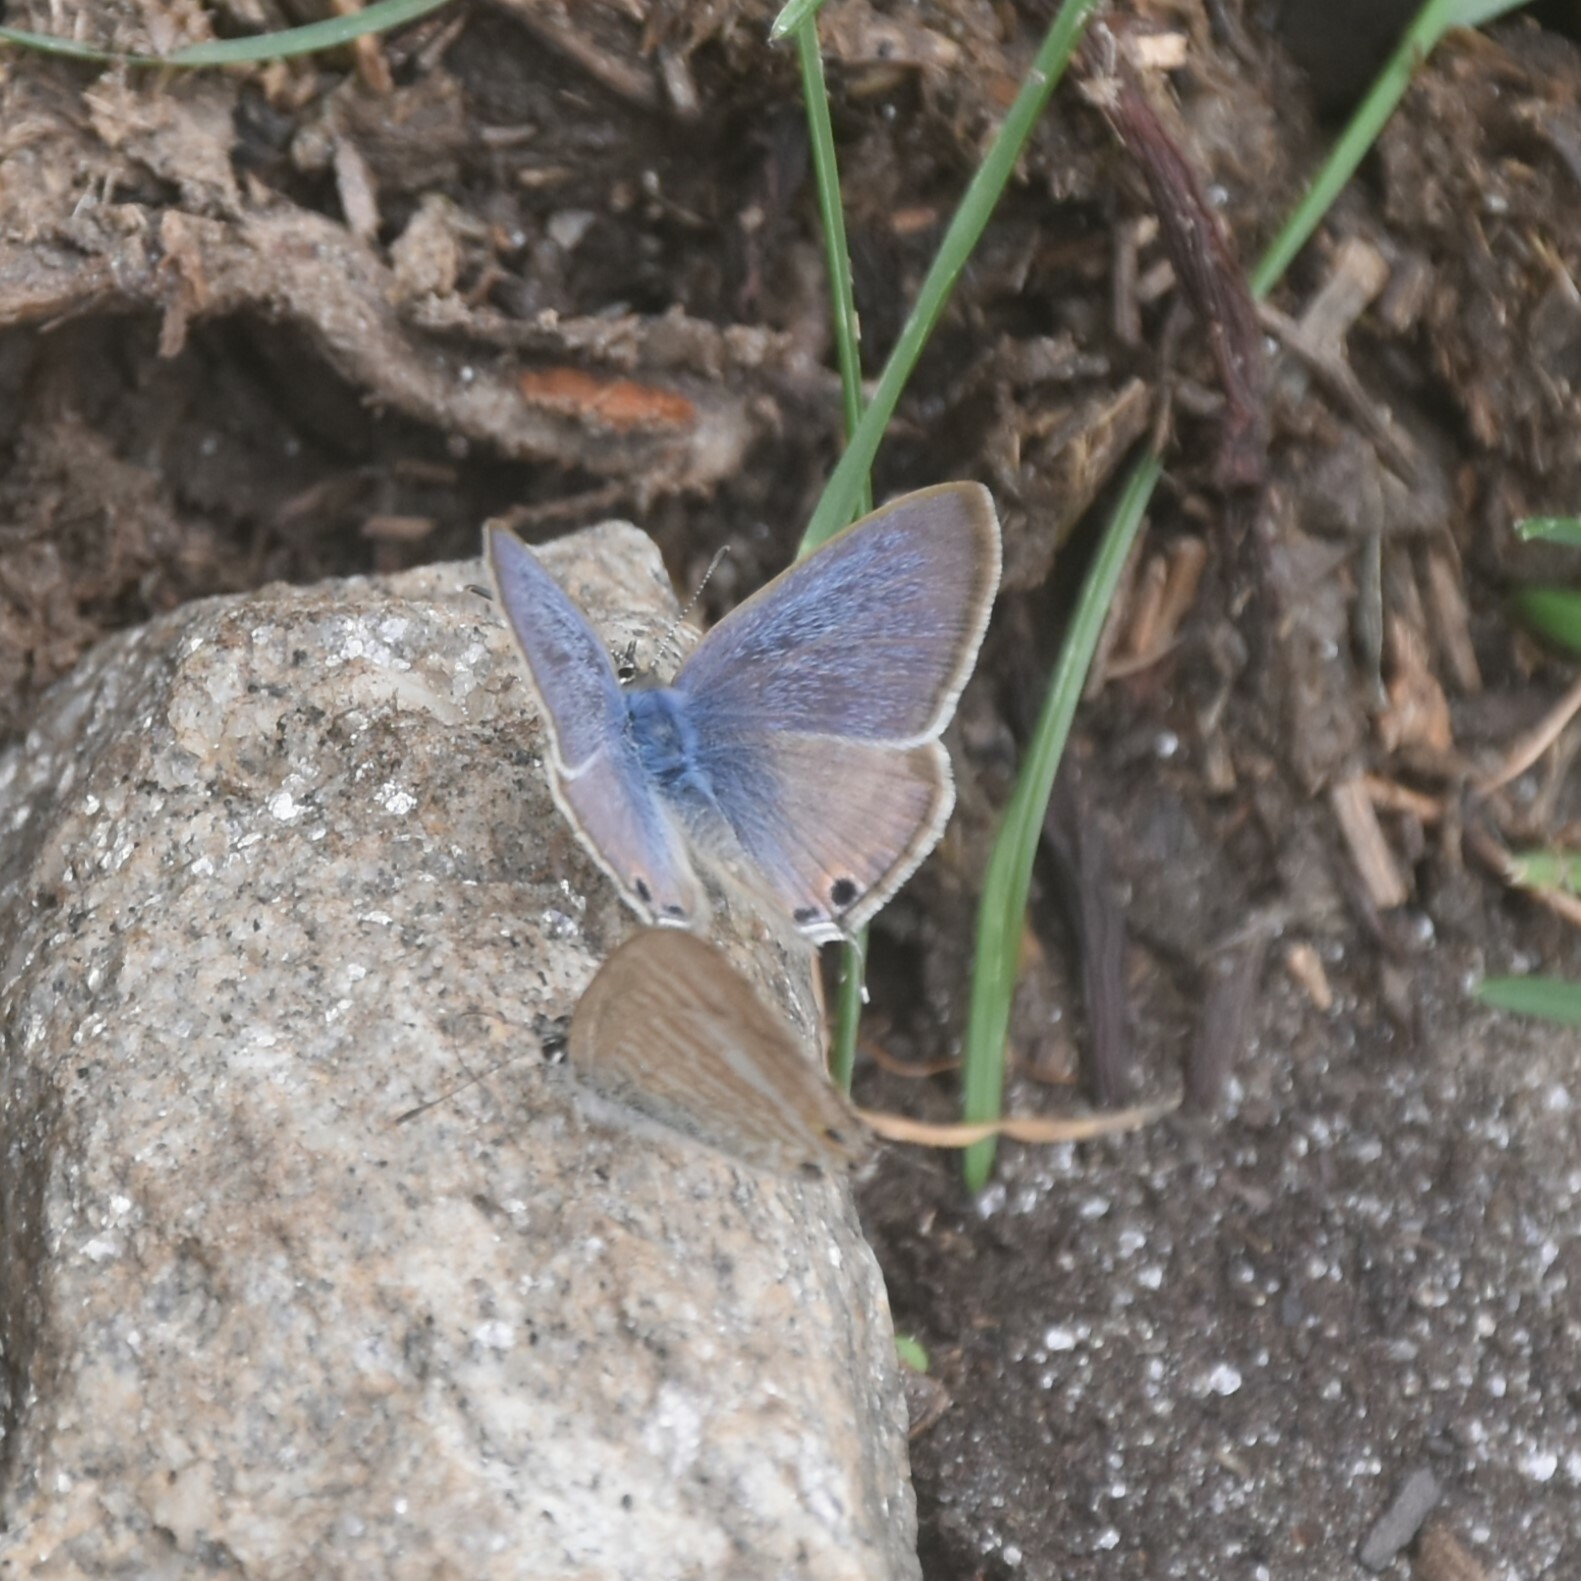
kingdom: Animalia
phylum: Arthropoda
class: Insecta
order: Lepidoptera
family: Lycaenidae
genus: Lampides
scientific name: Lampides boeticus
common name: Long-tailed blue
